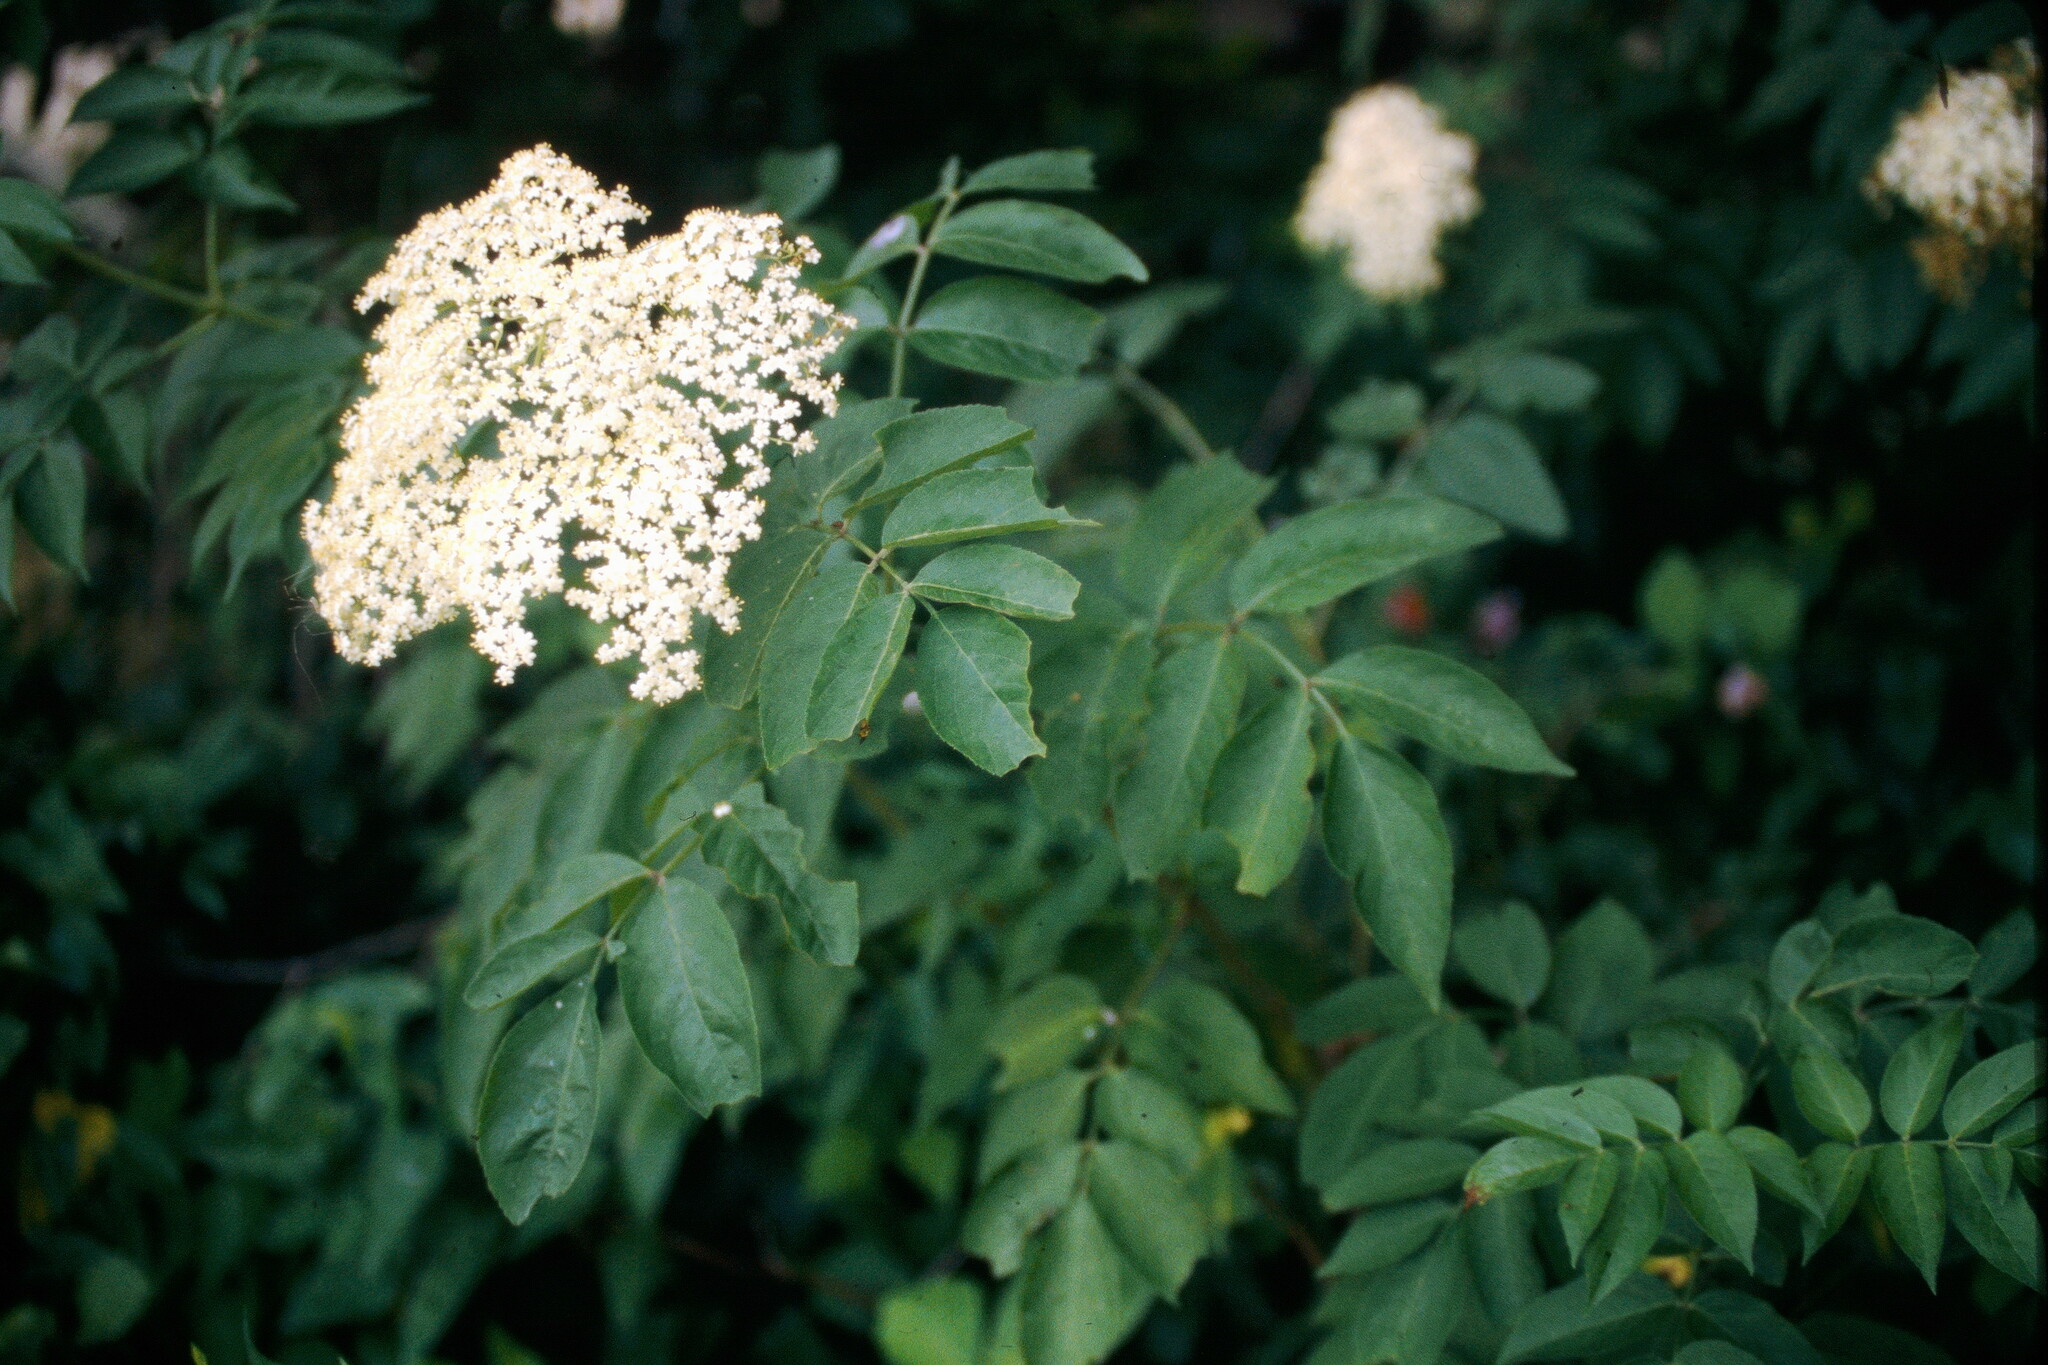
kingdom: Plantae
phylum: Tracheophyta
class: Magnoliopsida
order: Dipsacales
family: Viburnaceae
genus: Sambucus
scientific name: Sambucus canadensis
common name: American elder
